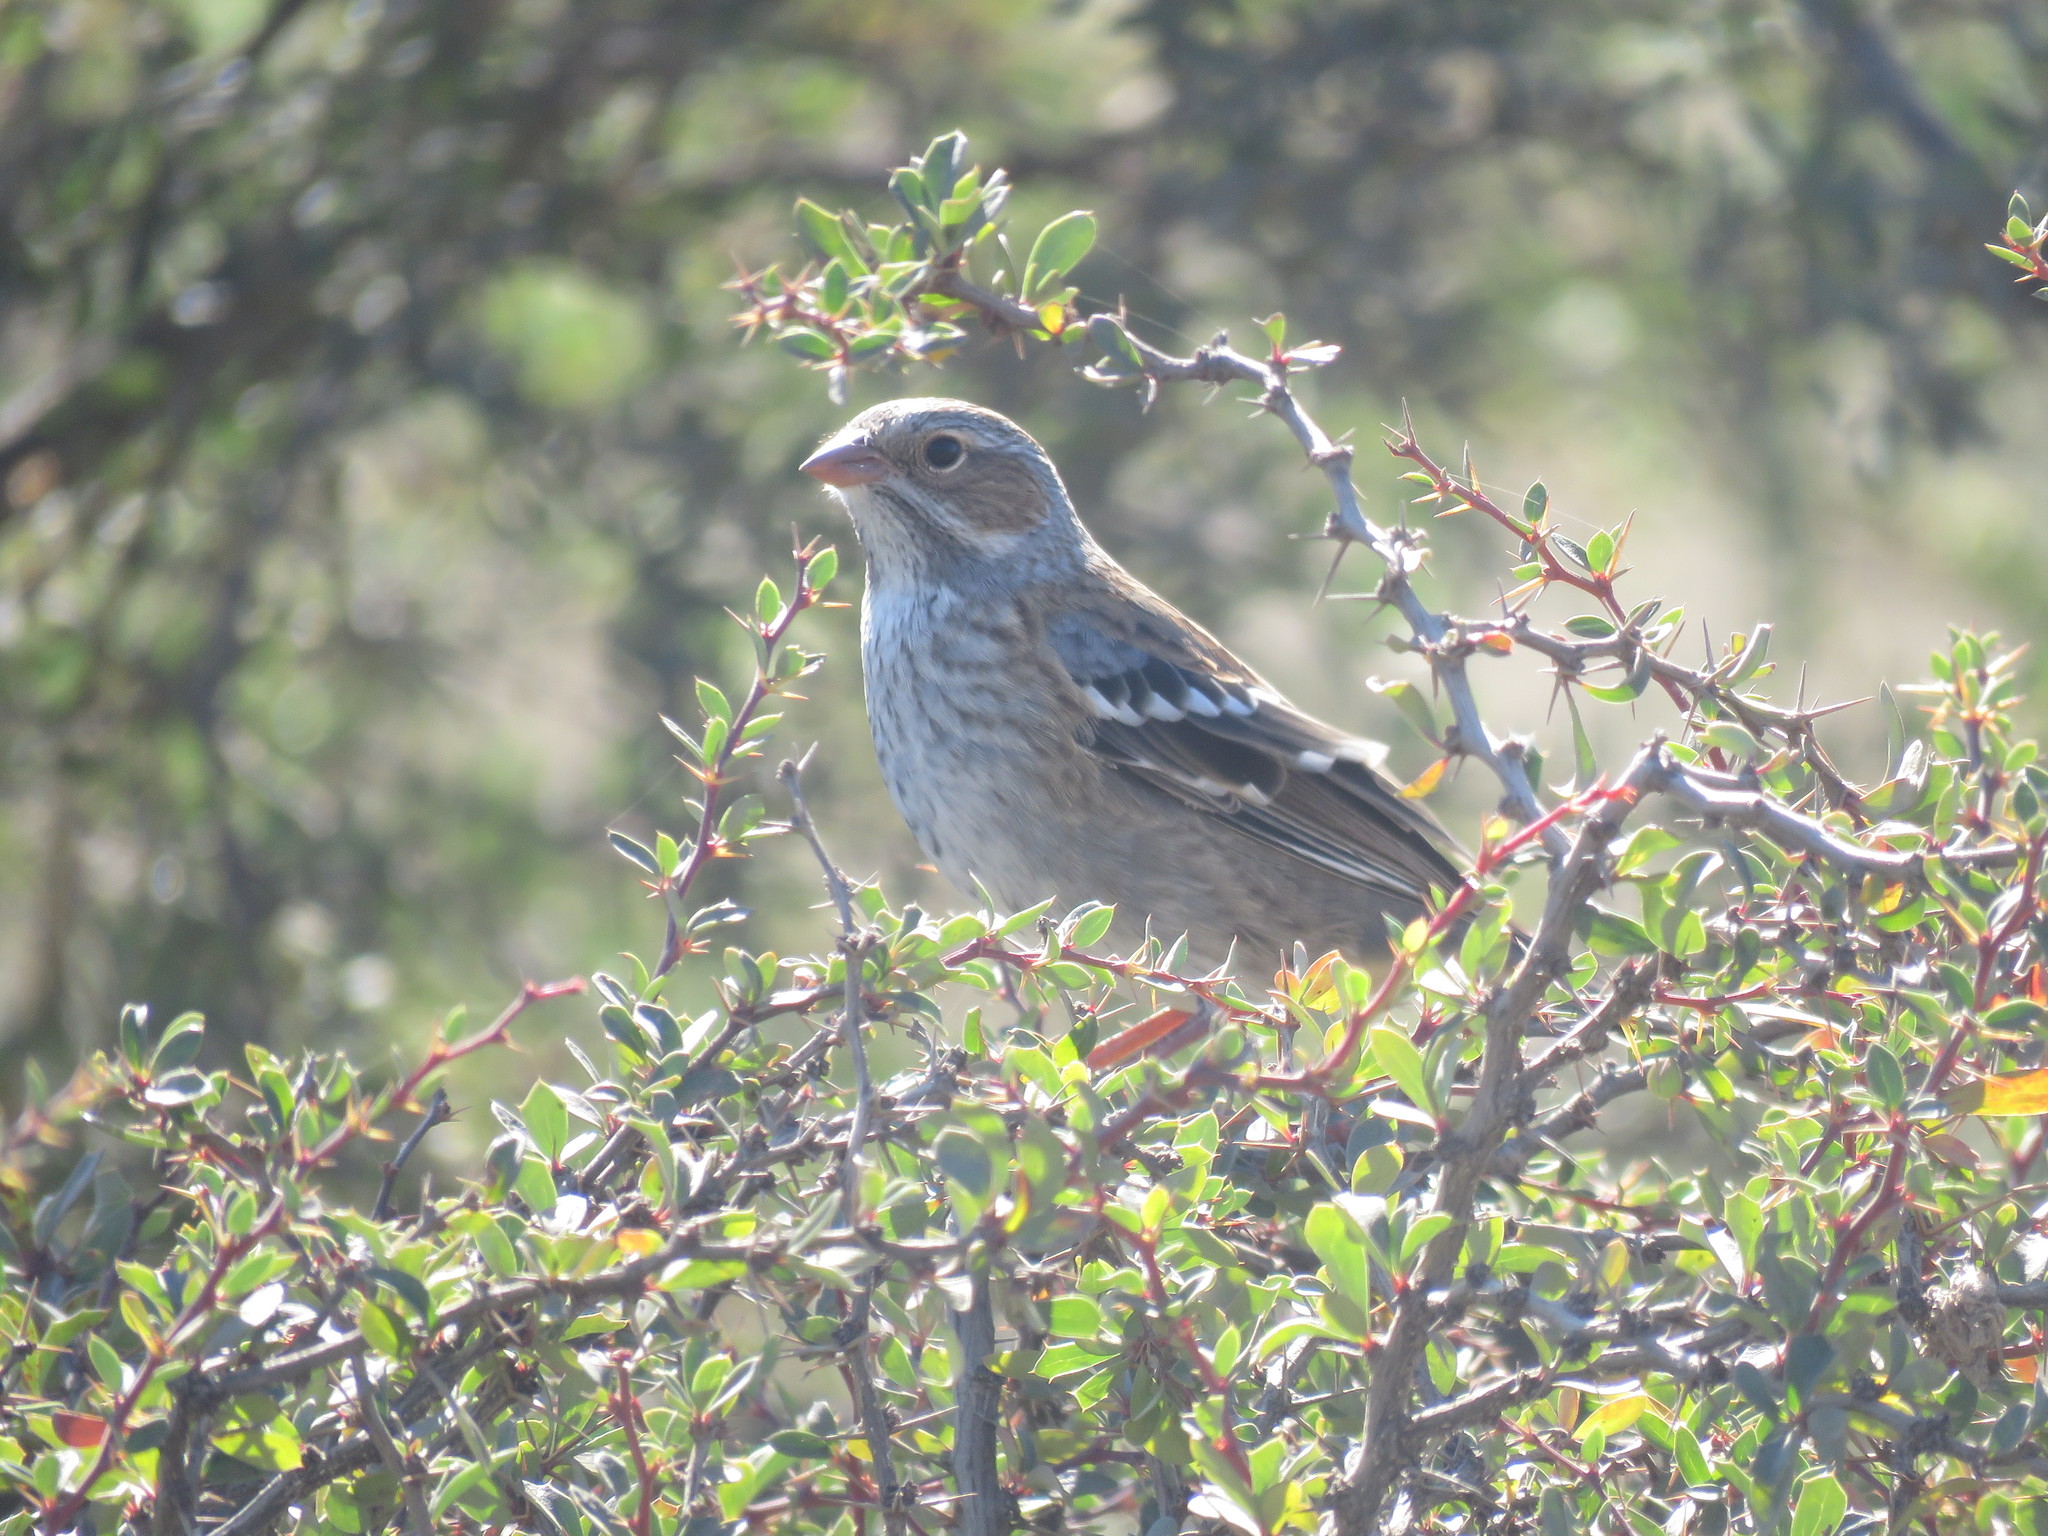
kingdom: Animalia
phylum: Chordata
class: Aves
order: Passeriformes
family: Thraupidae
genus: Rhopospina
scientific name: Rhopospina fruticeti
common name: Mourning sierra finch
